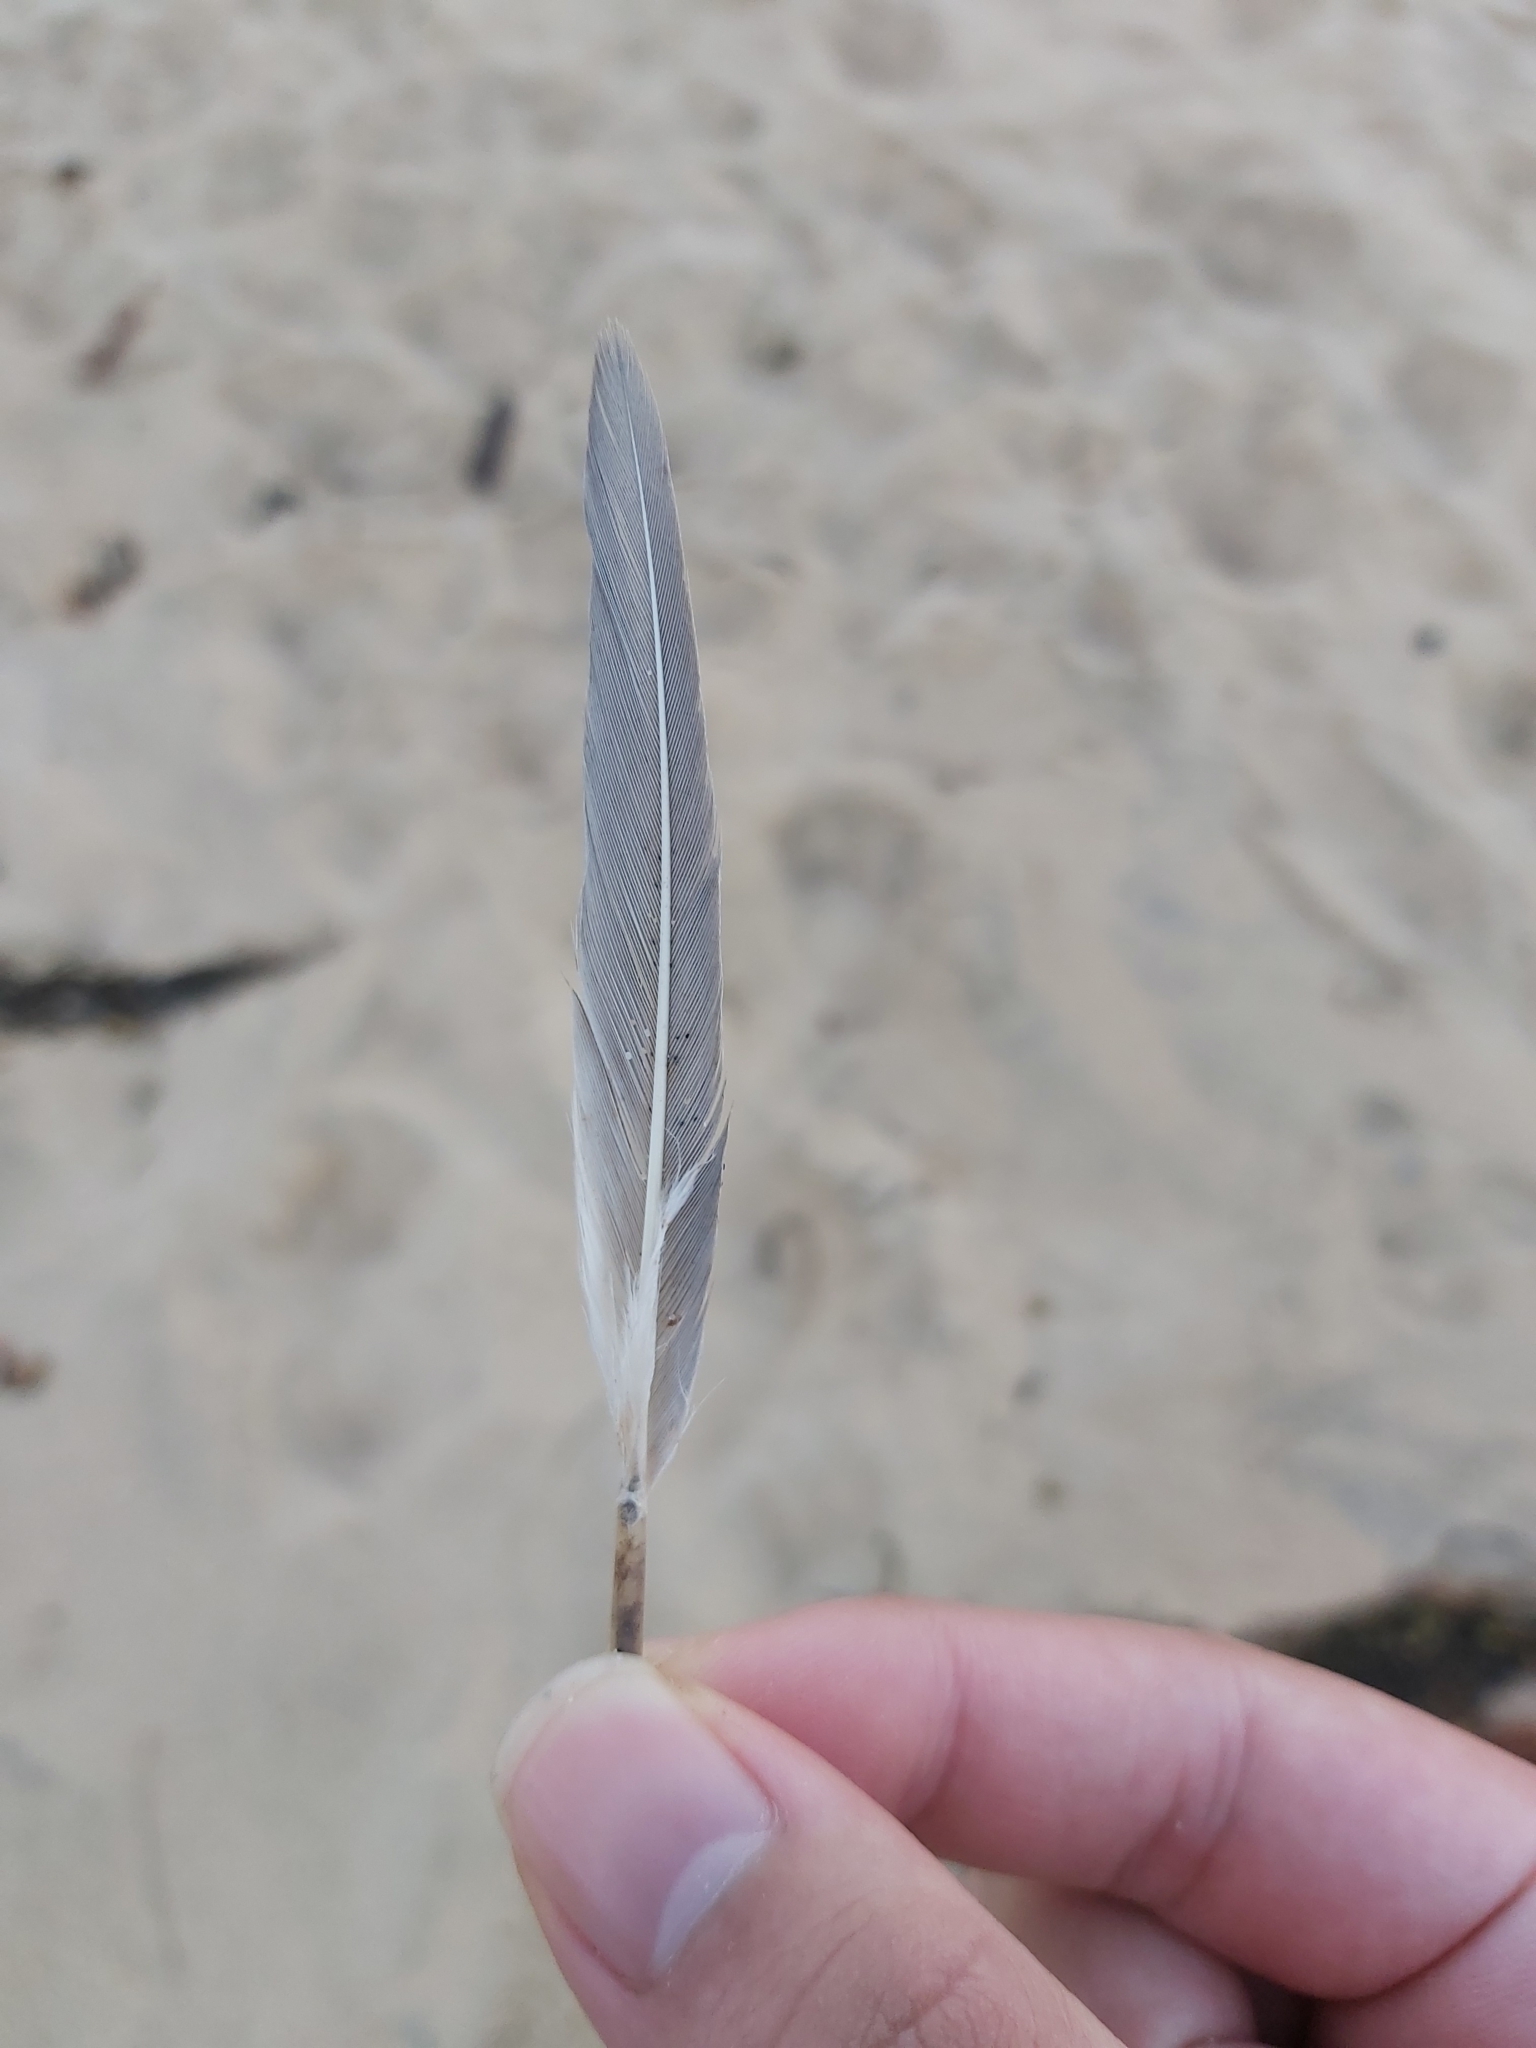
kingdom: Animalia
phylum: Chordata
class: Aves
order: Charadriiformes
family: Laridae
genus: Thalasseus
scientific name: Thalasseus bergii
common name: Greater crested tern
